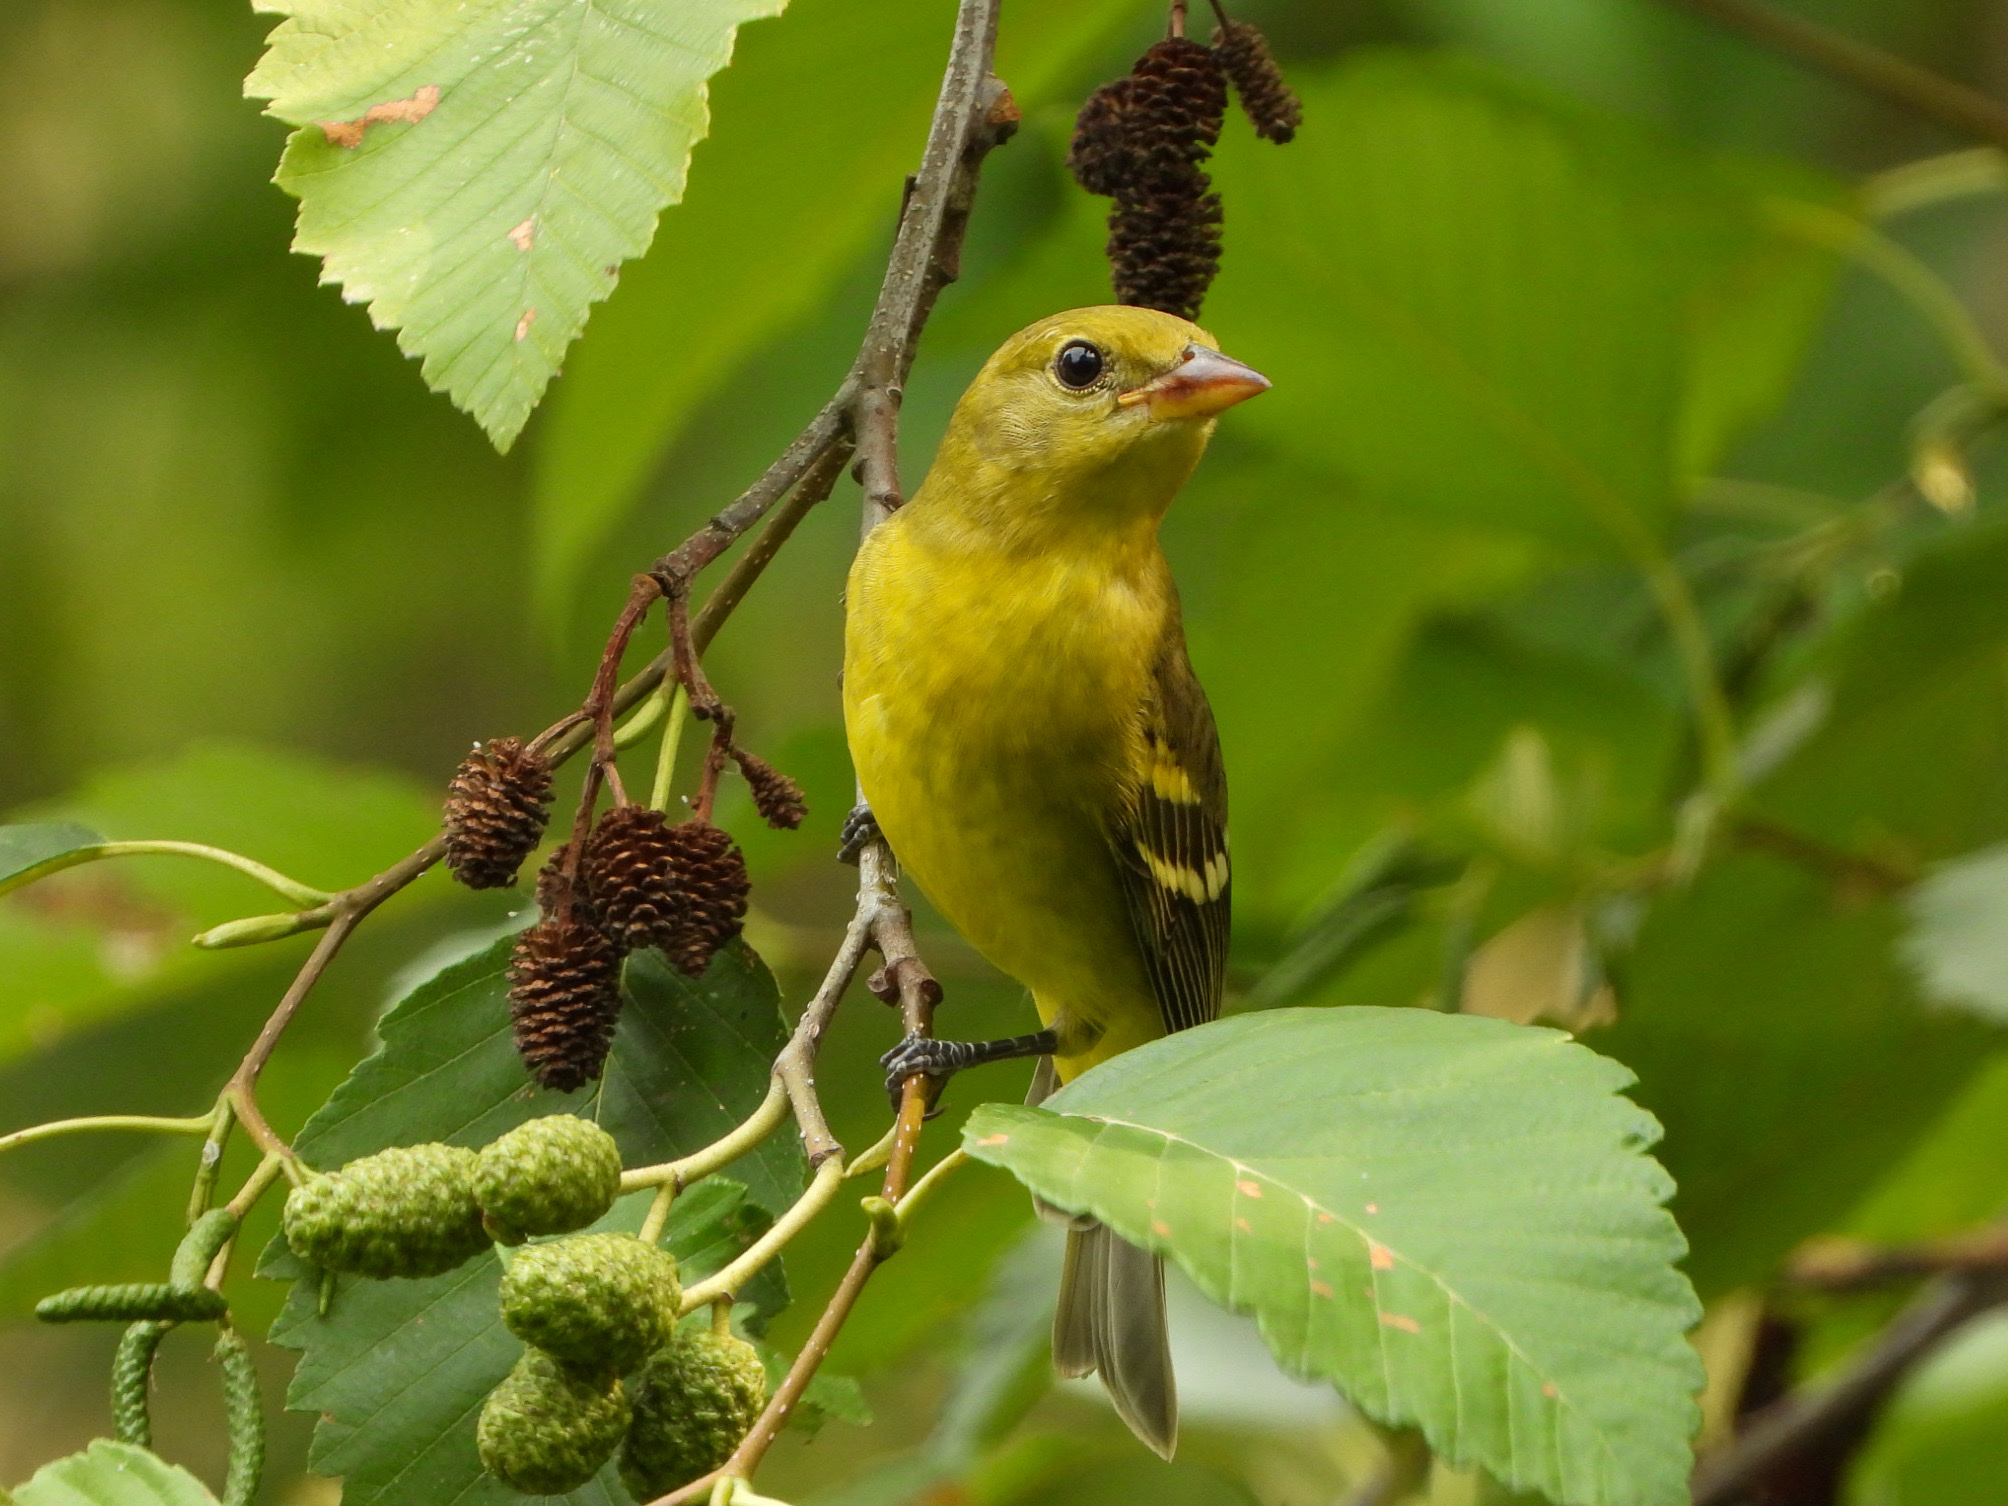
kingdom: Animalia
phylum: Chordata
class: Aves
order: Passeriformes
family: Cardinalidae
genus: Piranga
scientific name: Piranga ludoviciana
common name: Western tanager
